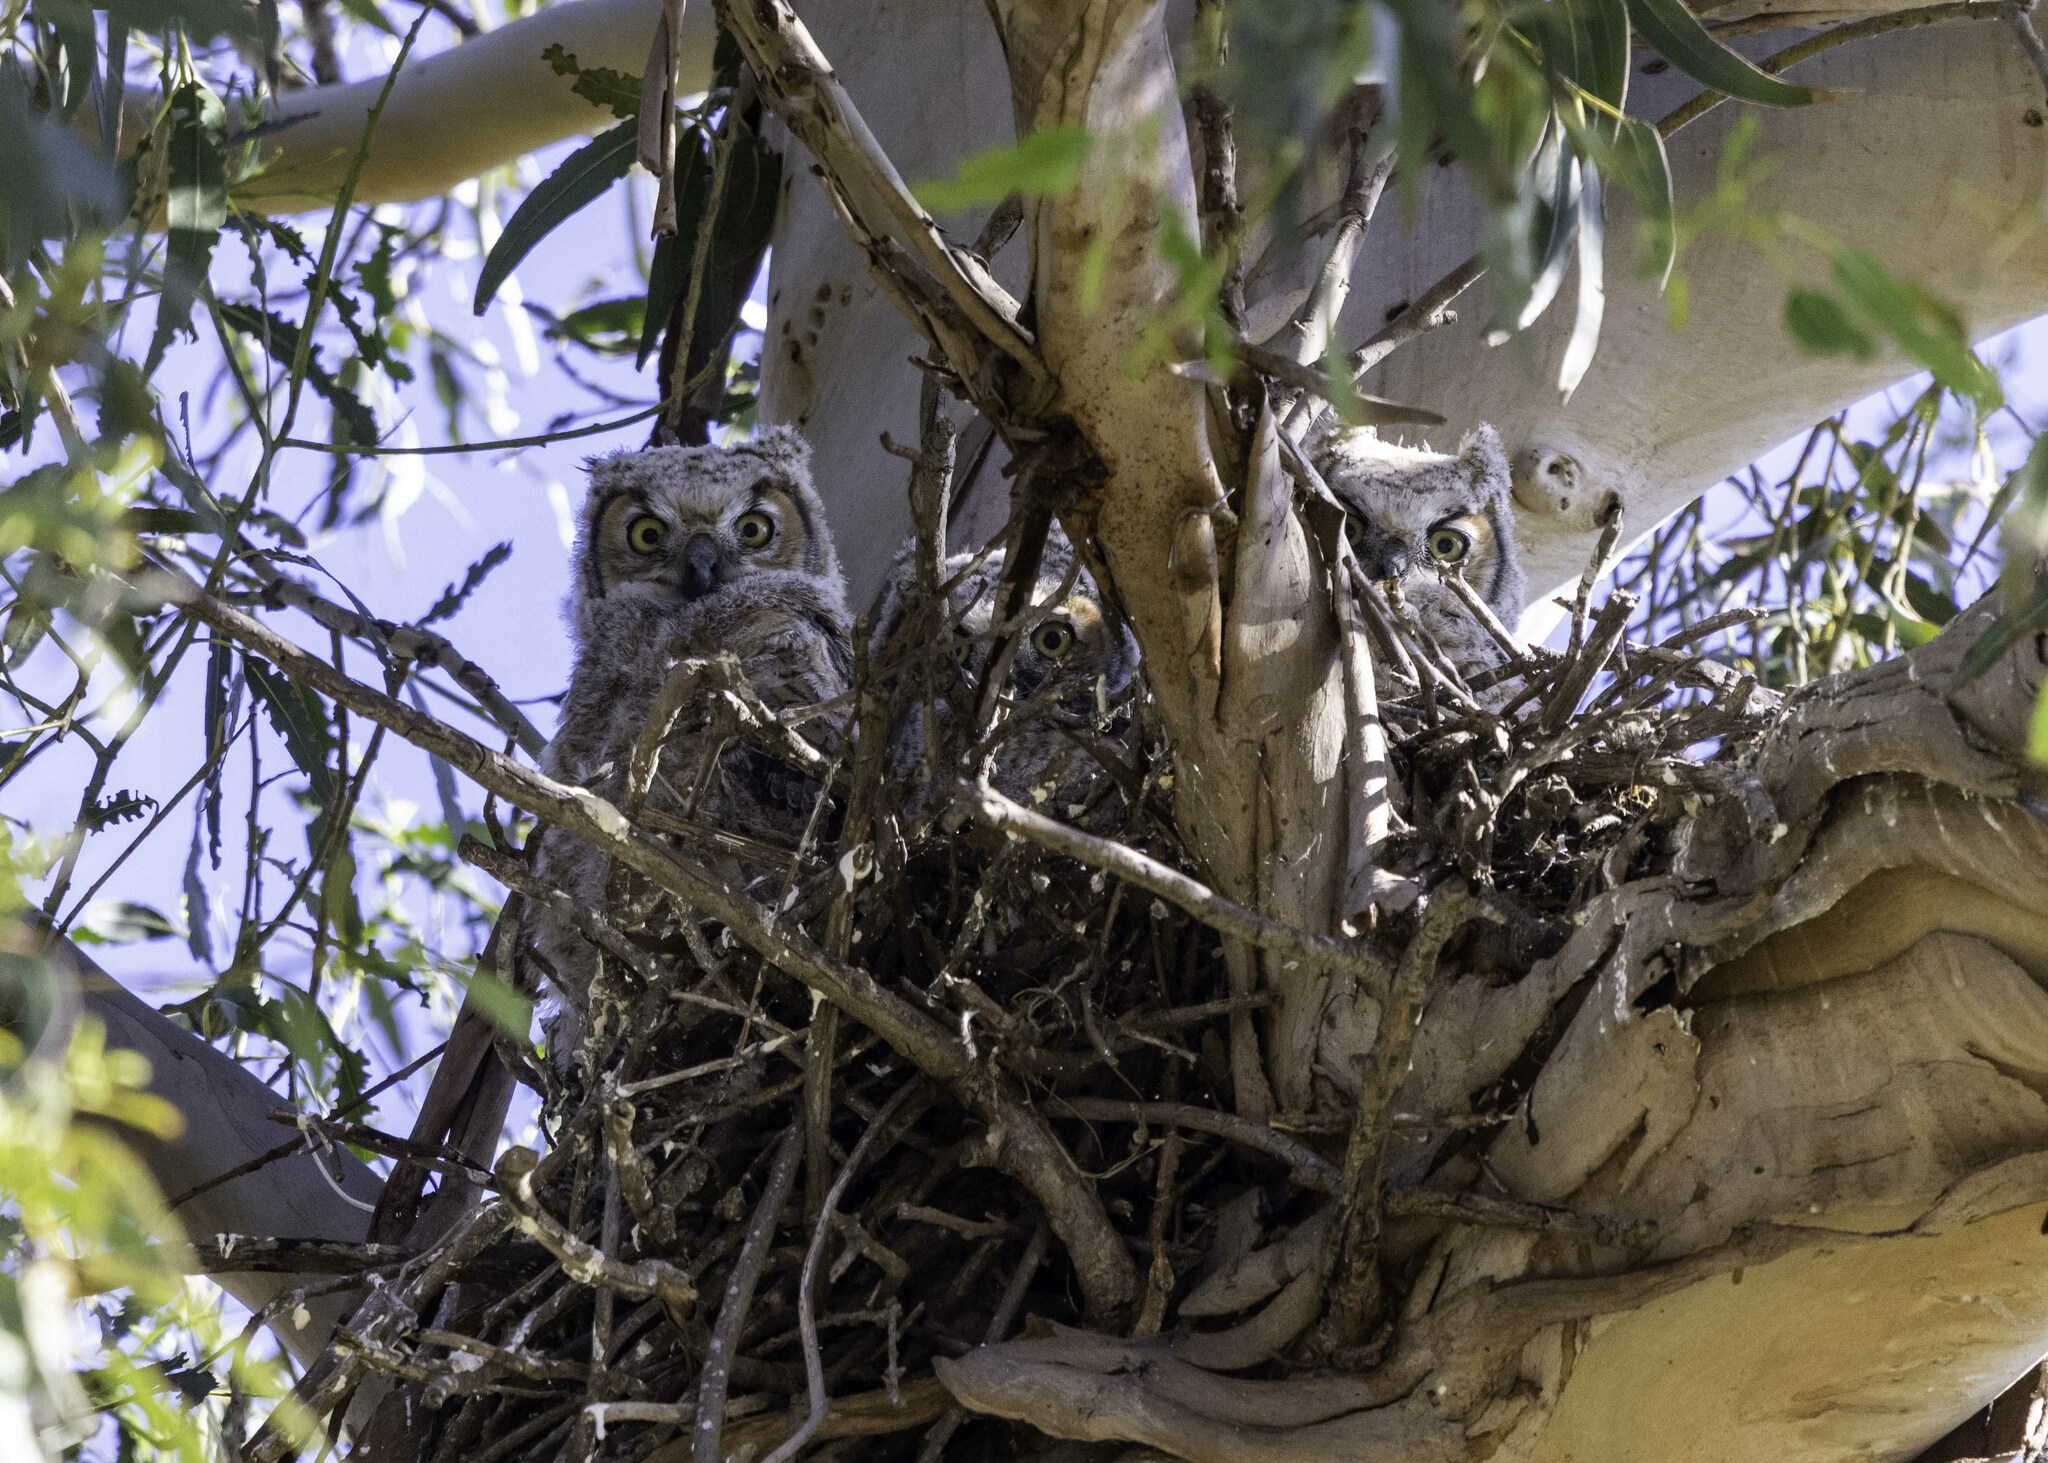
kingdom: Animalia
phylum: Chordata
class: Aves
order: Strigiformes
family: Strigidae
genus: Bubo
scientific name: Bubo virginianus
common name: Great horned owl
